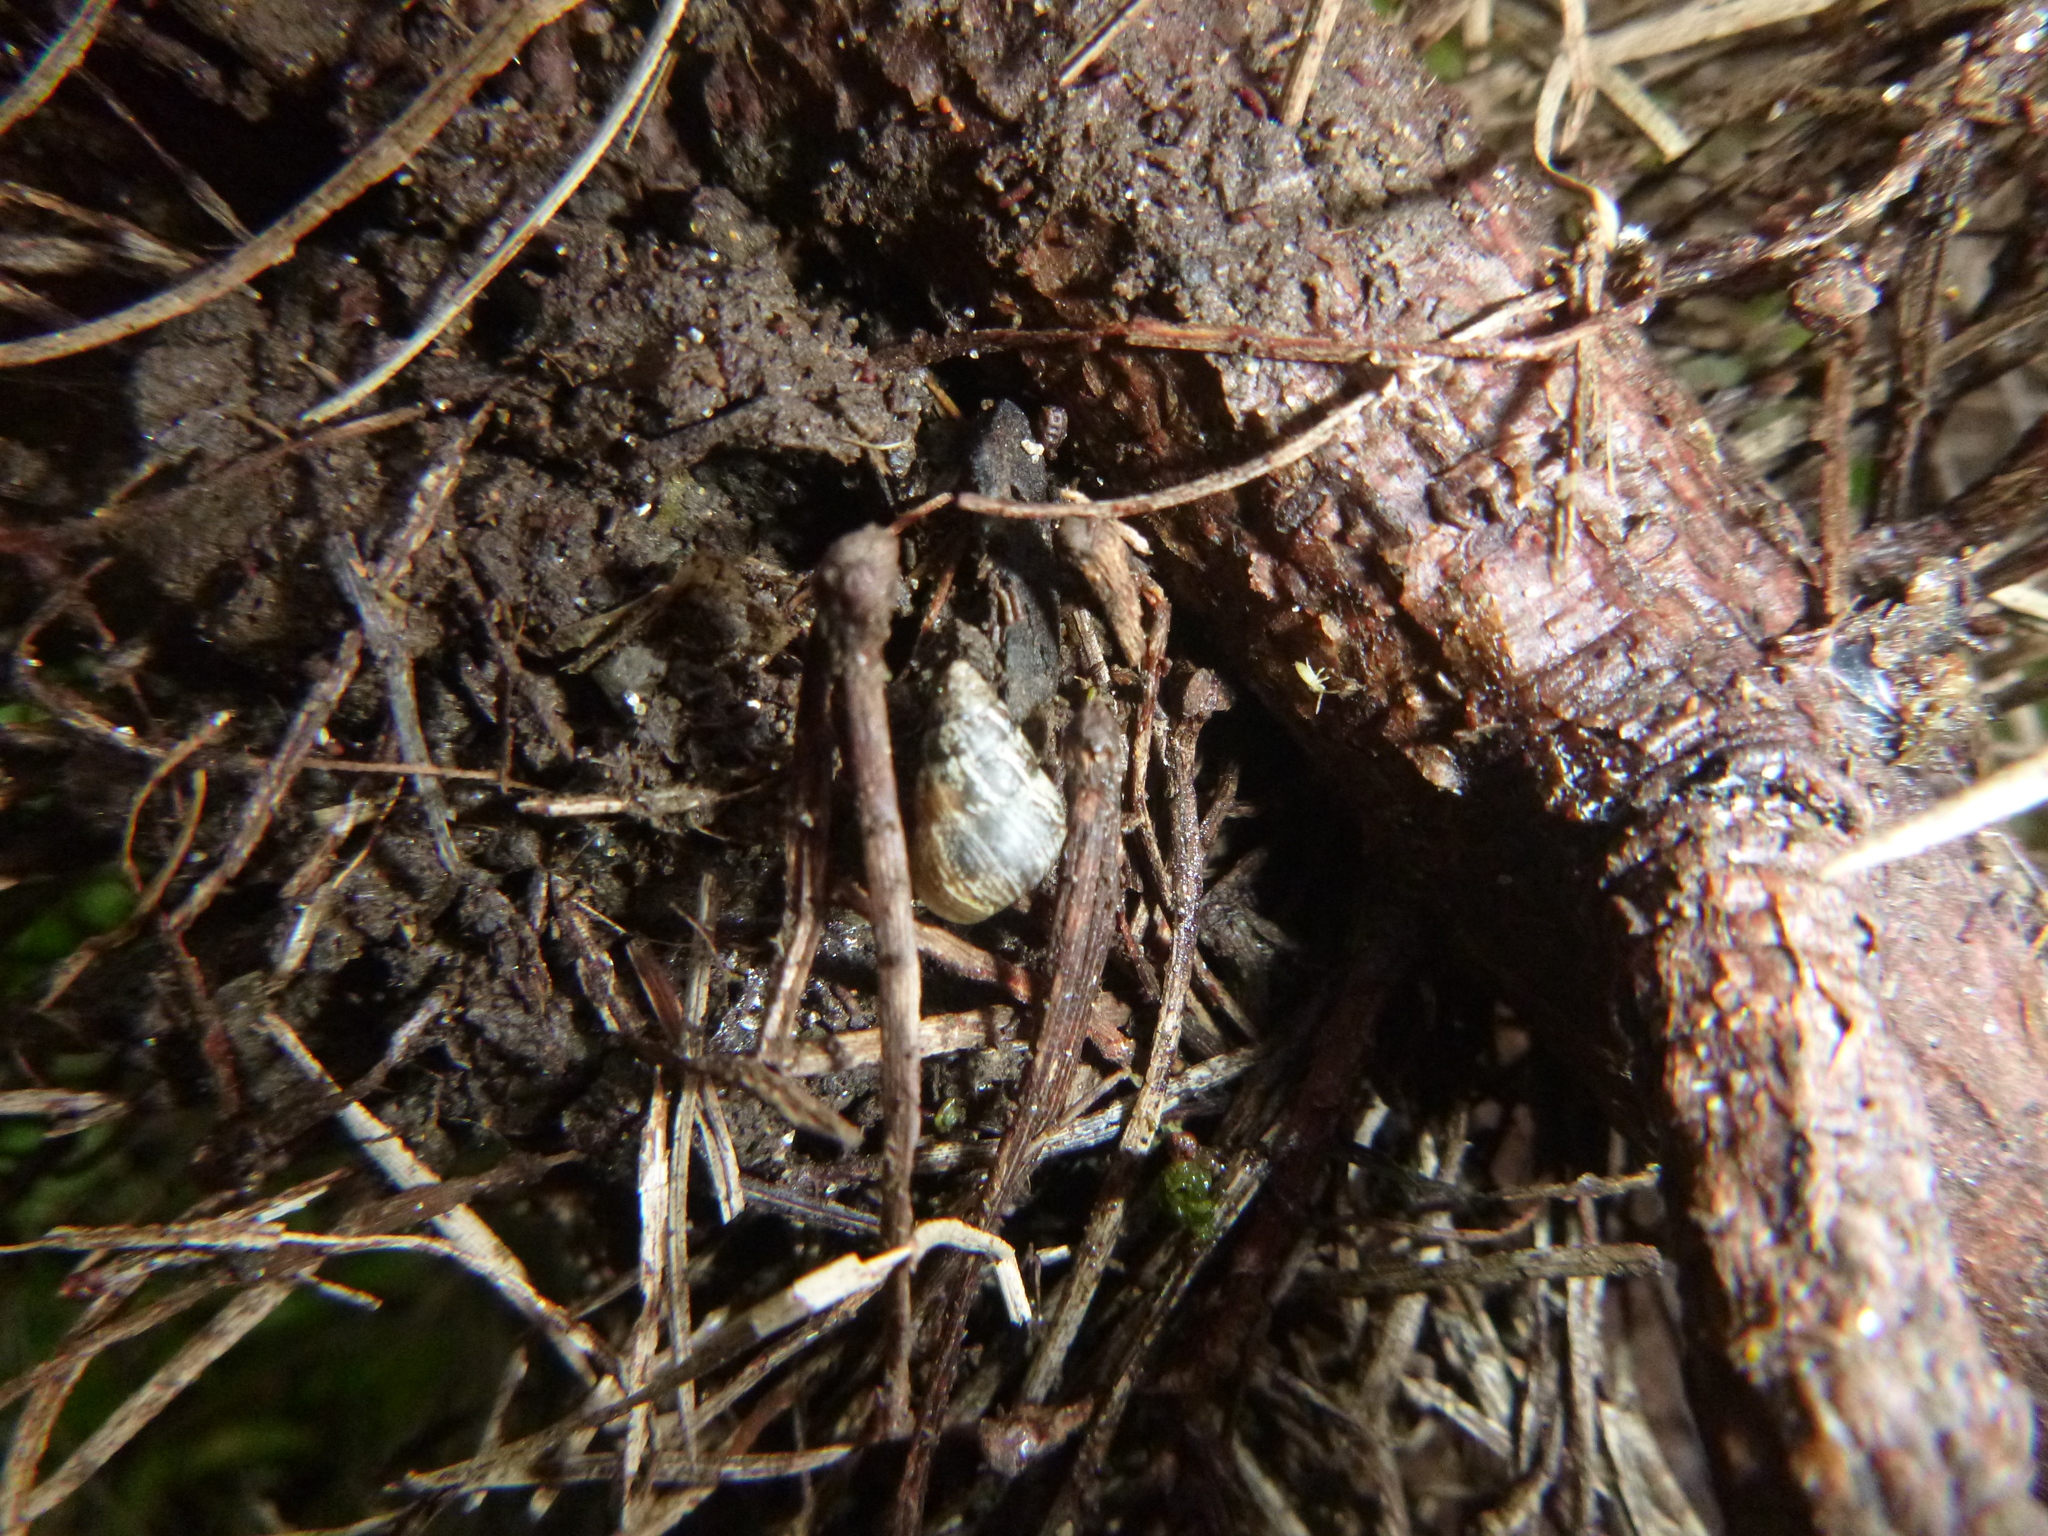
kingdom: Animalia
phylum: Mollusca
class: Gastropoda
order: Stylommatophora
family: Geomitridae
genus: Cochlicella
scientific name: Cochlicella barbara
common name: Potbellied helicellid
